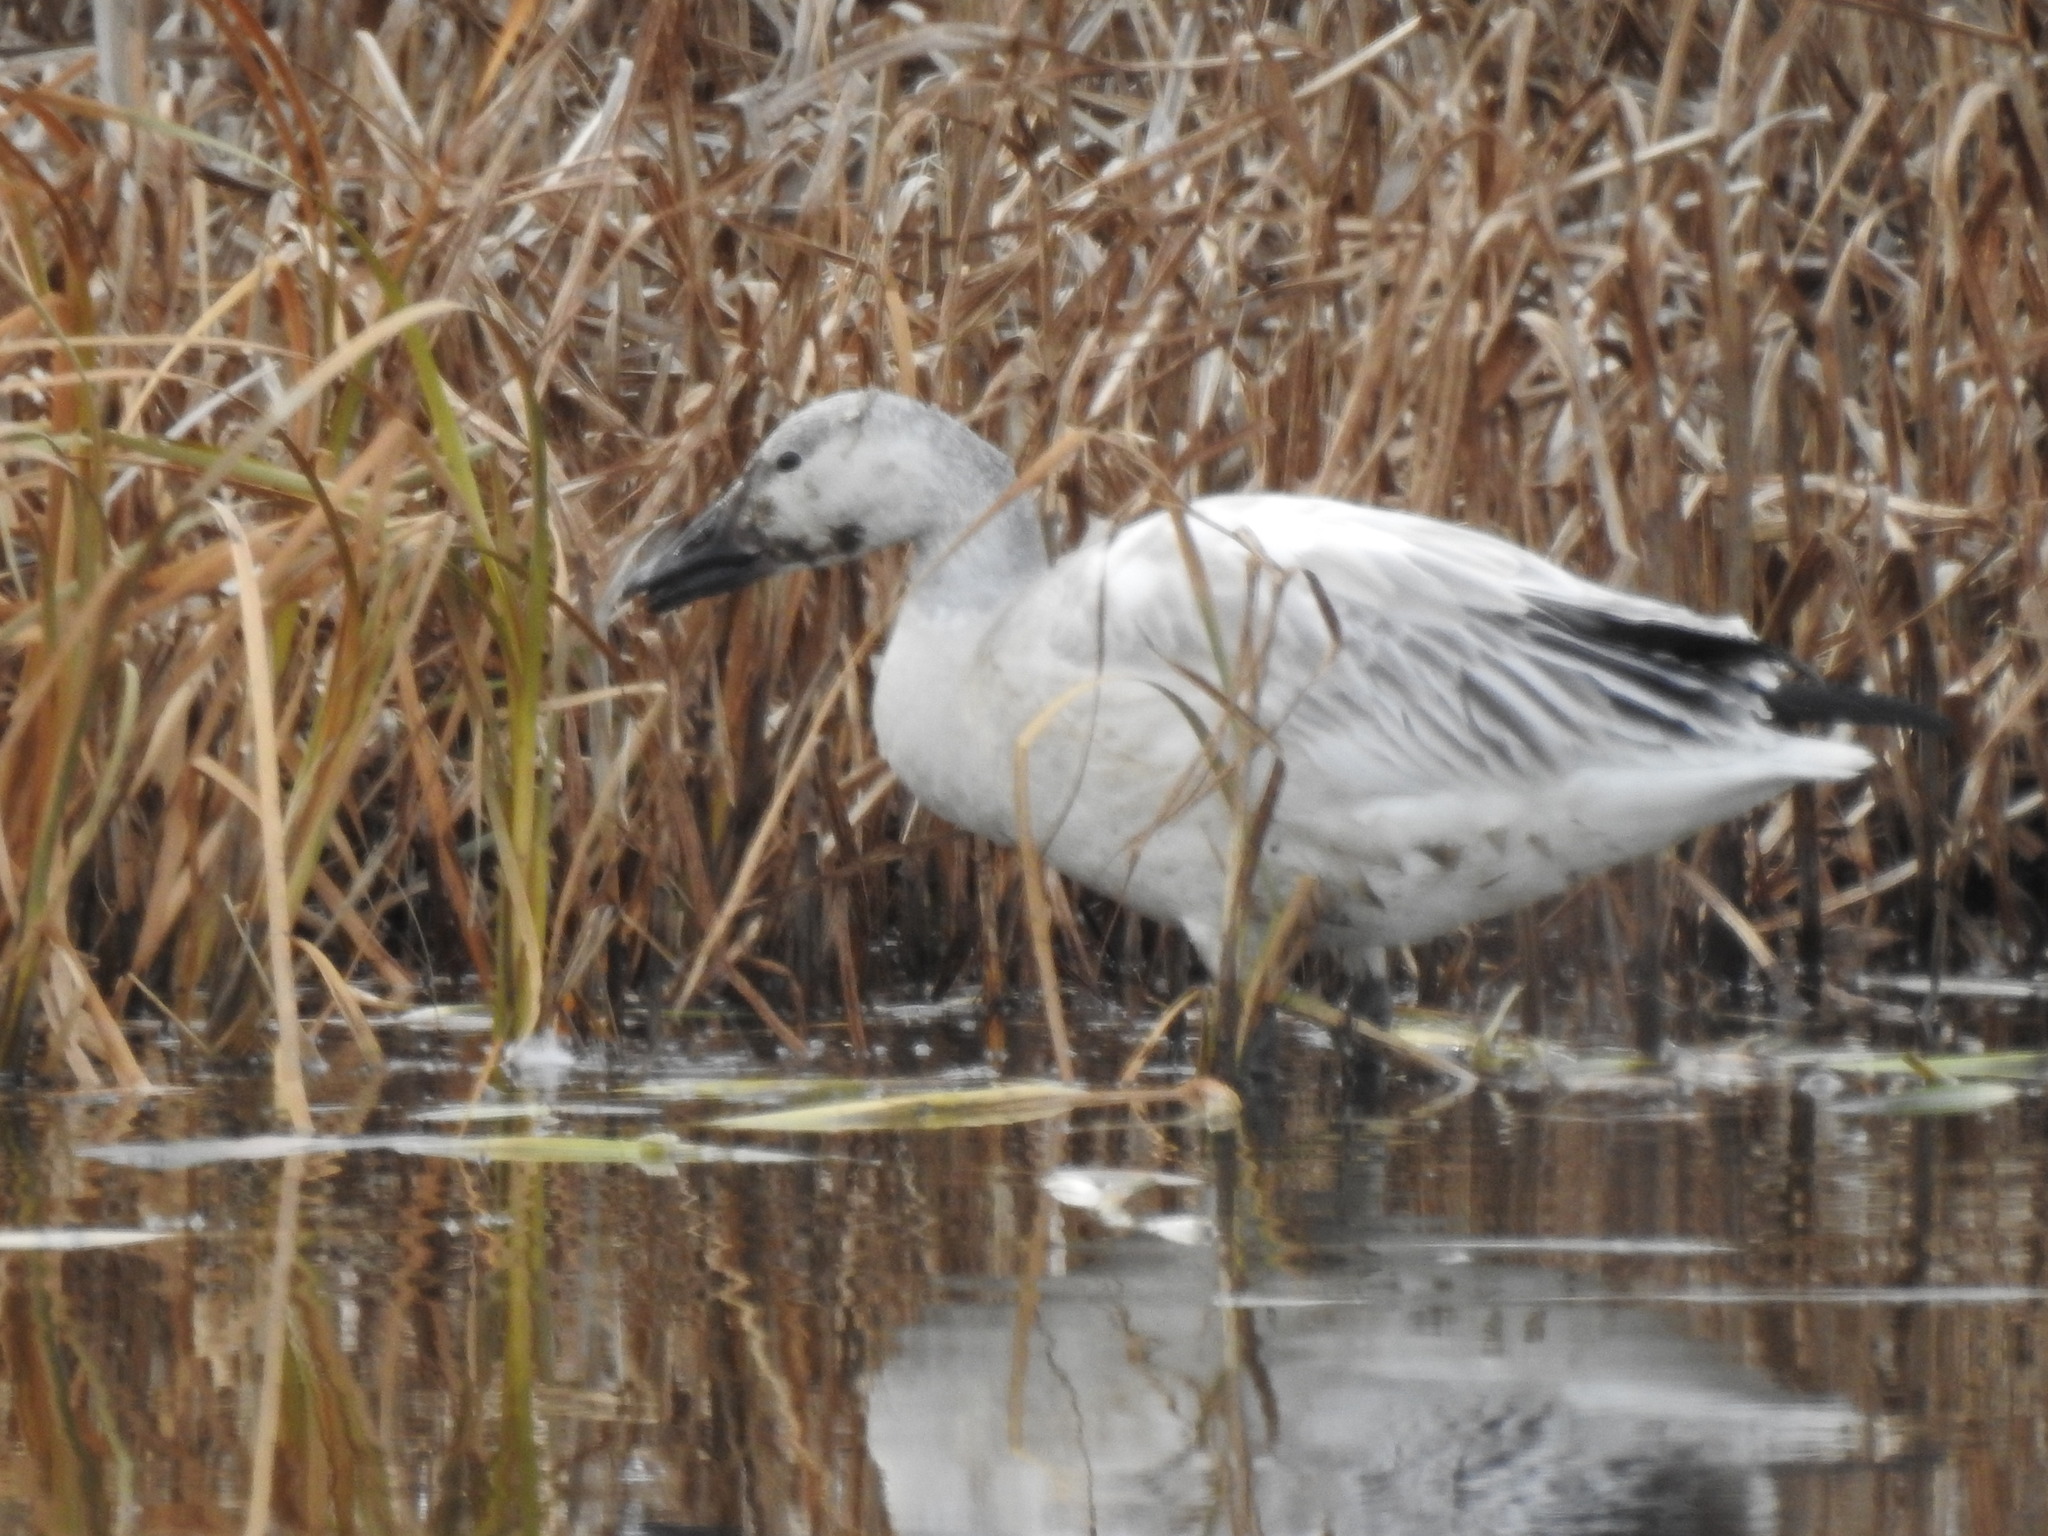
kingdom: Animalia
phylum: Chordata
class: Aves
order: Anseriformes
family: Anatidae
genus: Anser
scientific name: Anser caerulescens
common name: Snow goose
